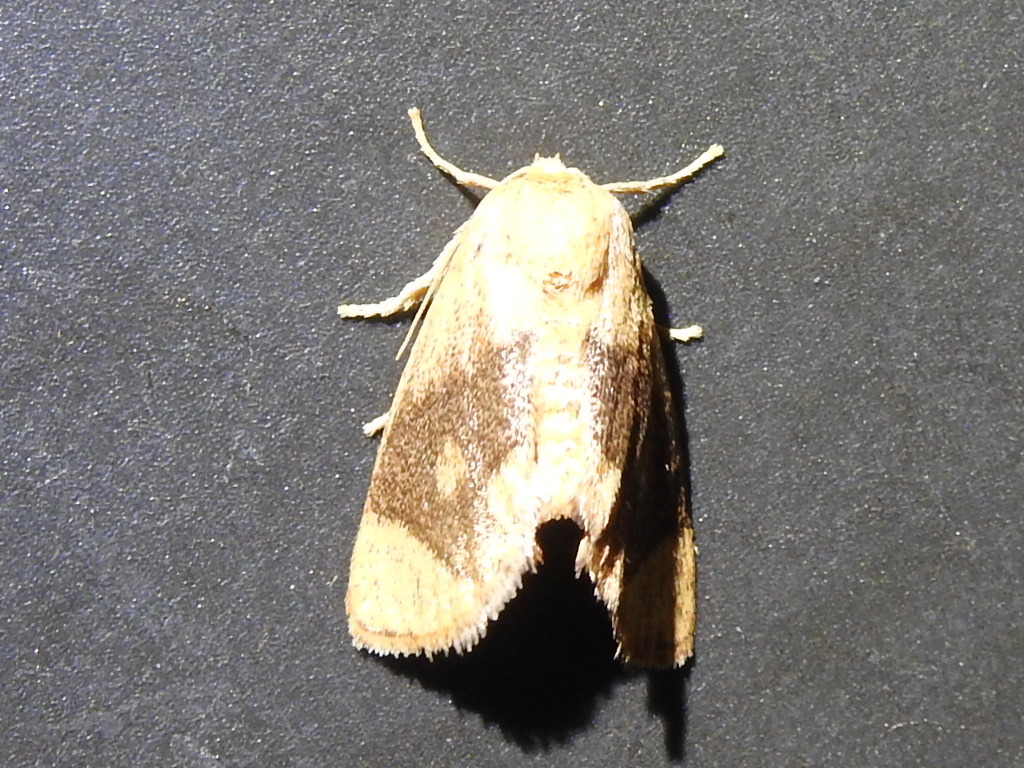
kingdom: Animalia
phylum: Arthropoda
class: Insecta
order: Lepidoptera
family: Limacodidae
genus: Apoda
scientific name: Apoda y-inversa
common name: Yellow-collared slug moth
